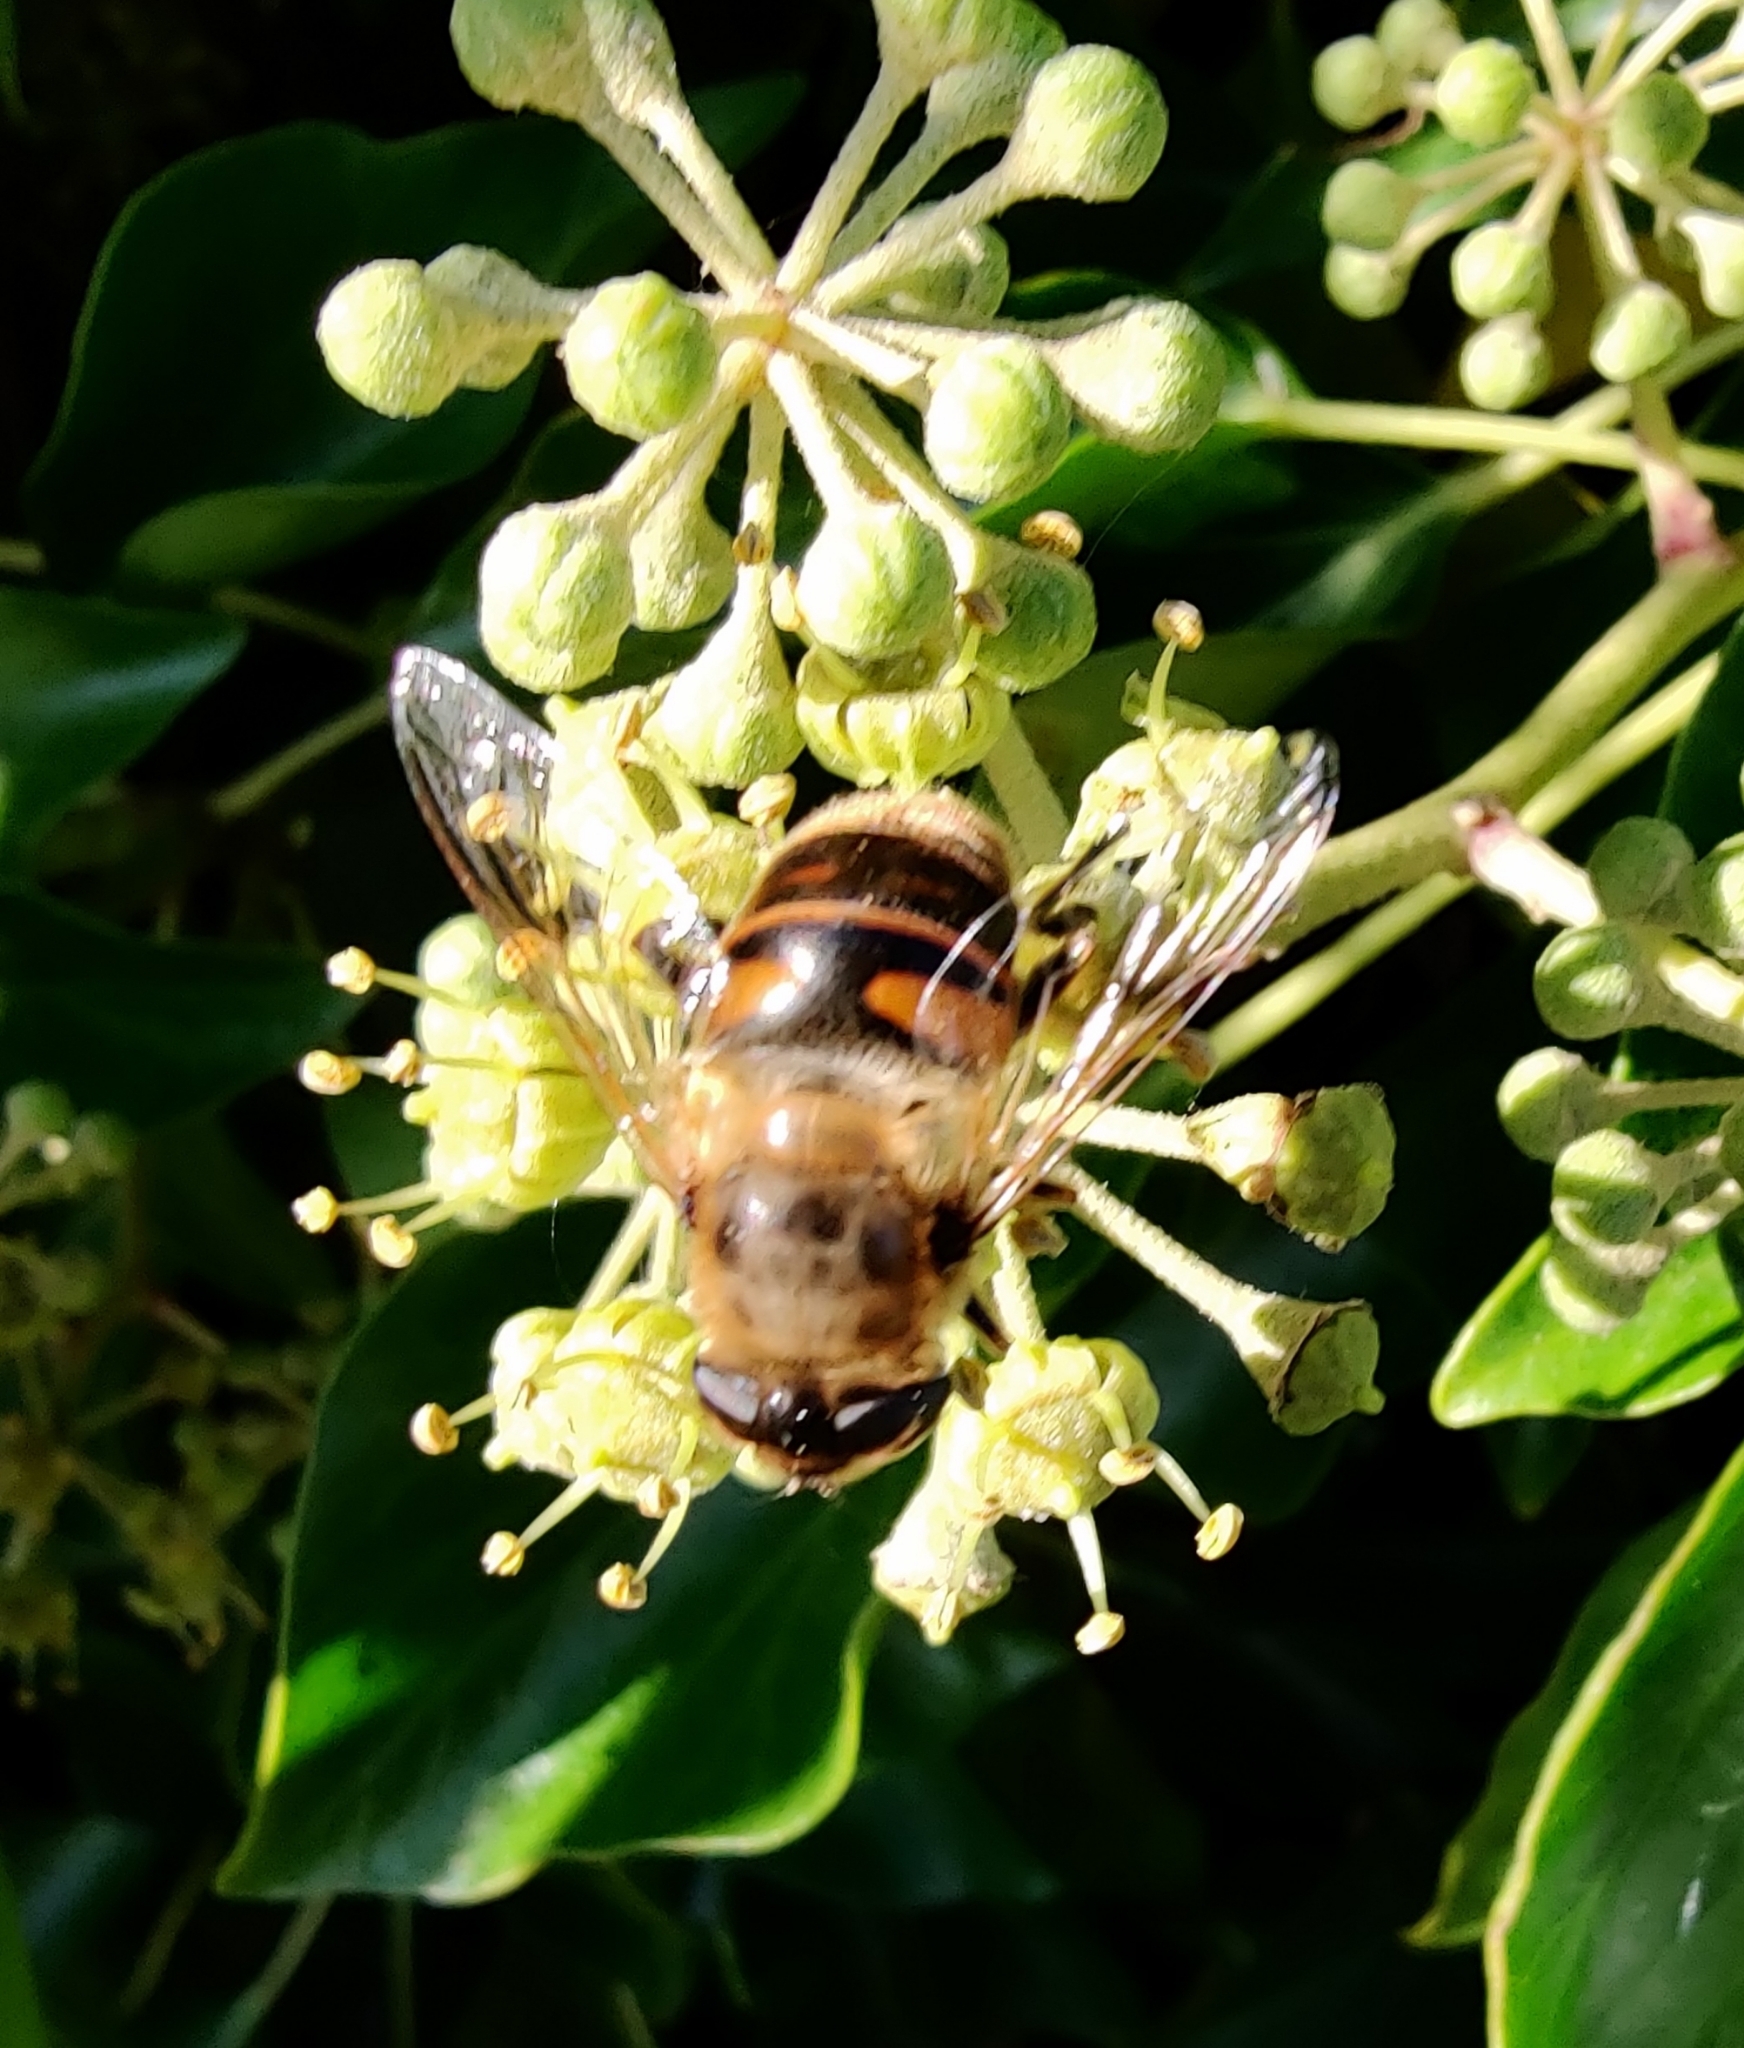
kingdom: Animalia
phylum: Arthropoda
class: Insecta
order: Diptera
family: Syrphidae
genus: Eristalis
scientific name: Eristalis tenax
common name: Drone fly
